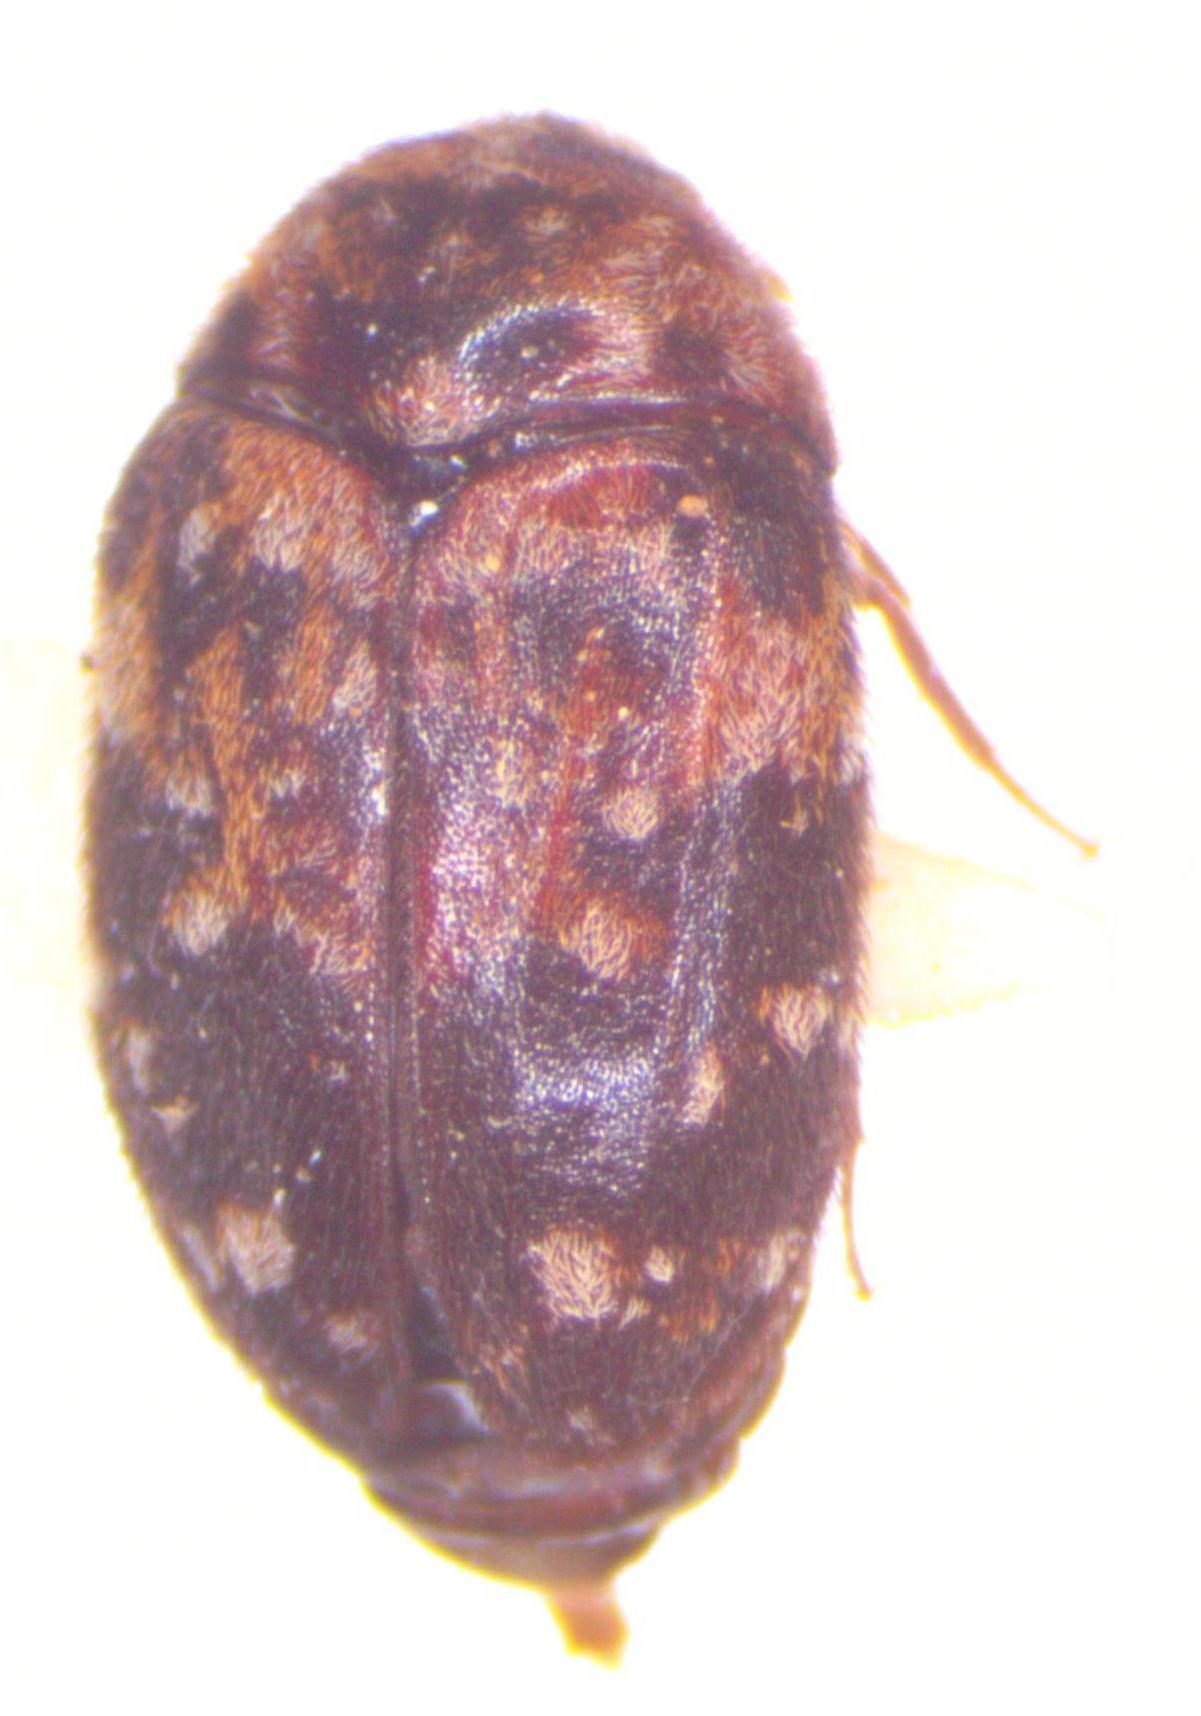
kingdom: Animalia
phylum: Arthropoda
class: Insecta
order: Coleoptera
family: Dermestidae
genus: Trogoderma
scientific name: Trogoderma
